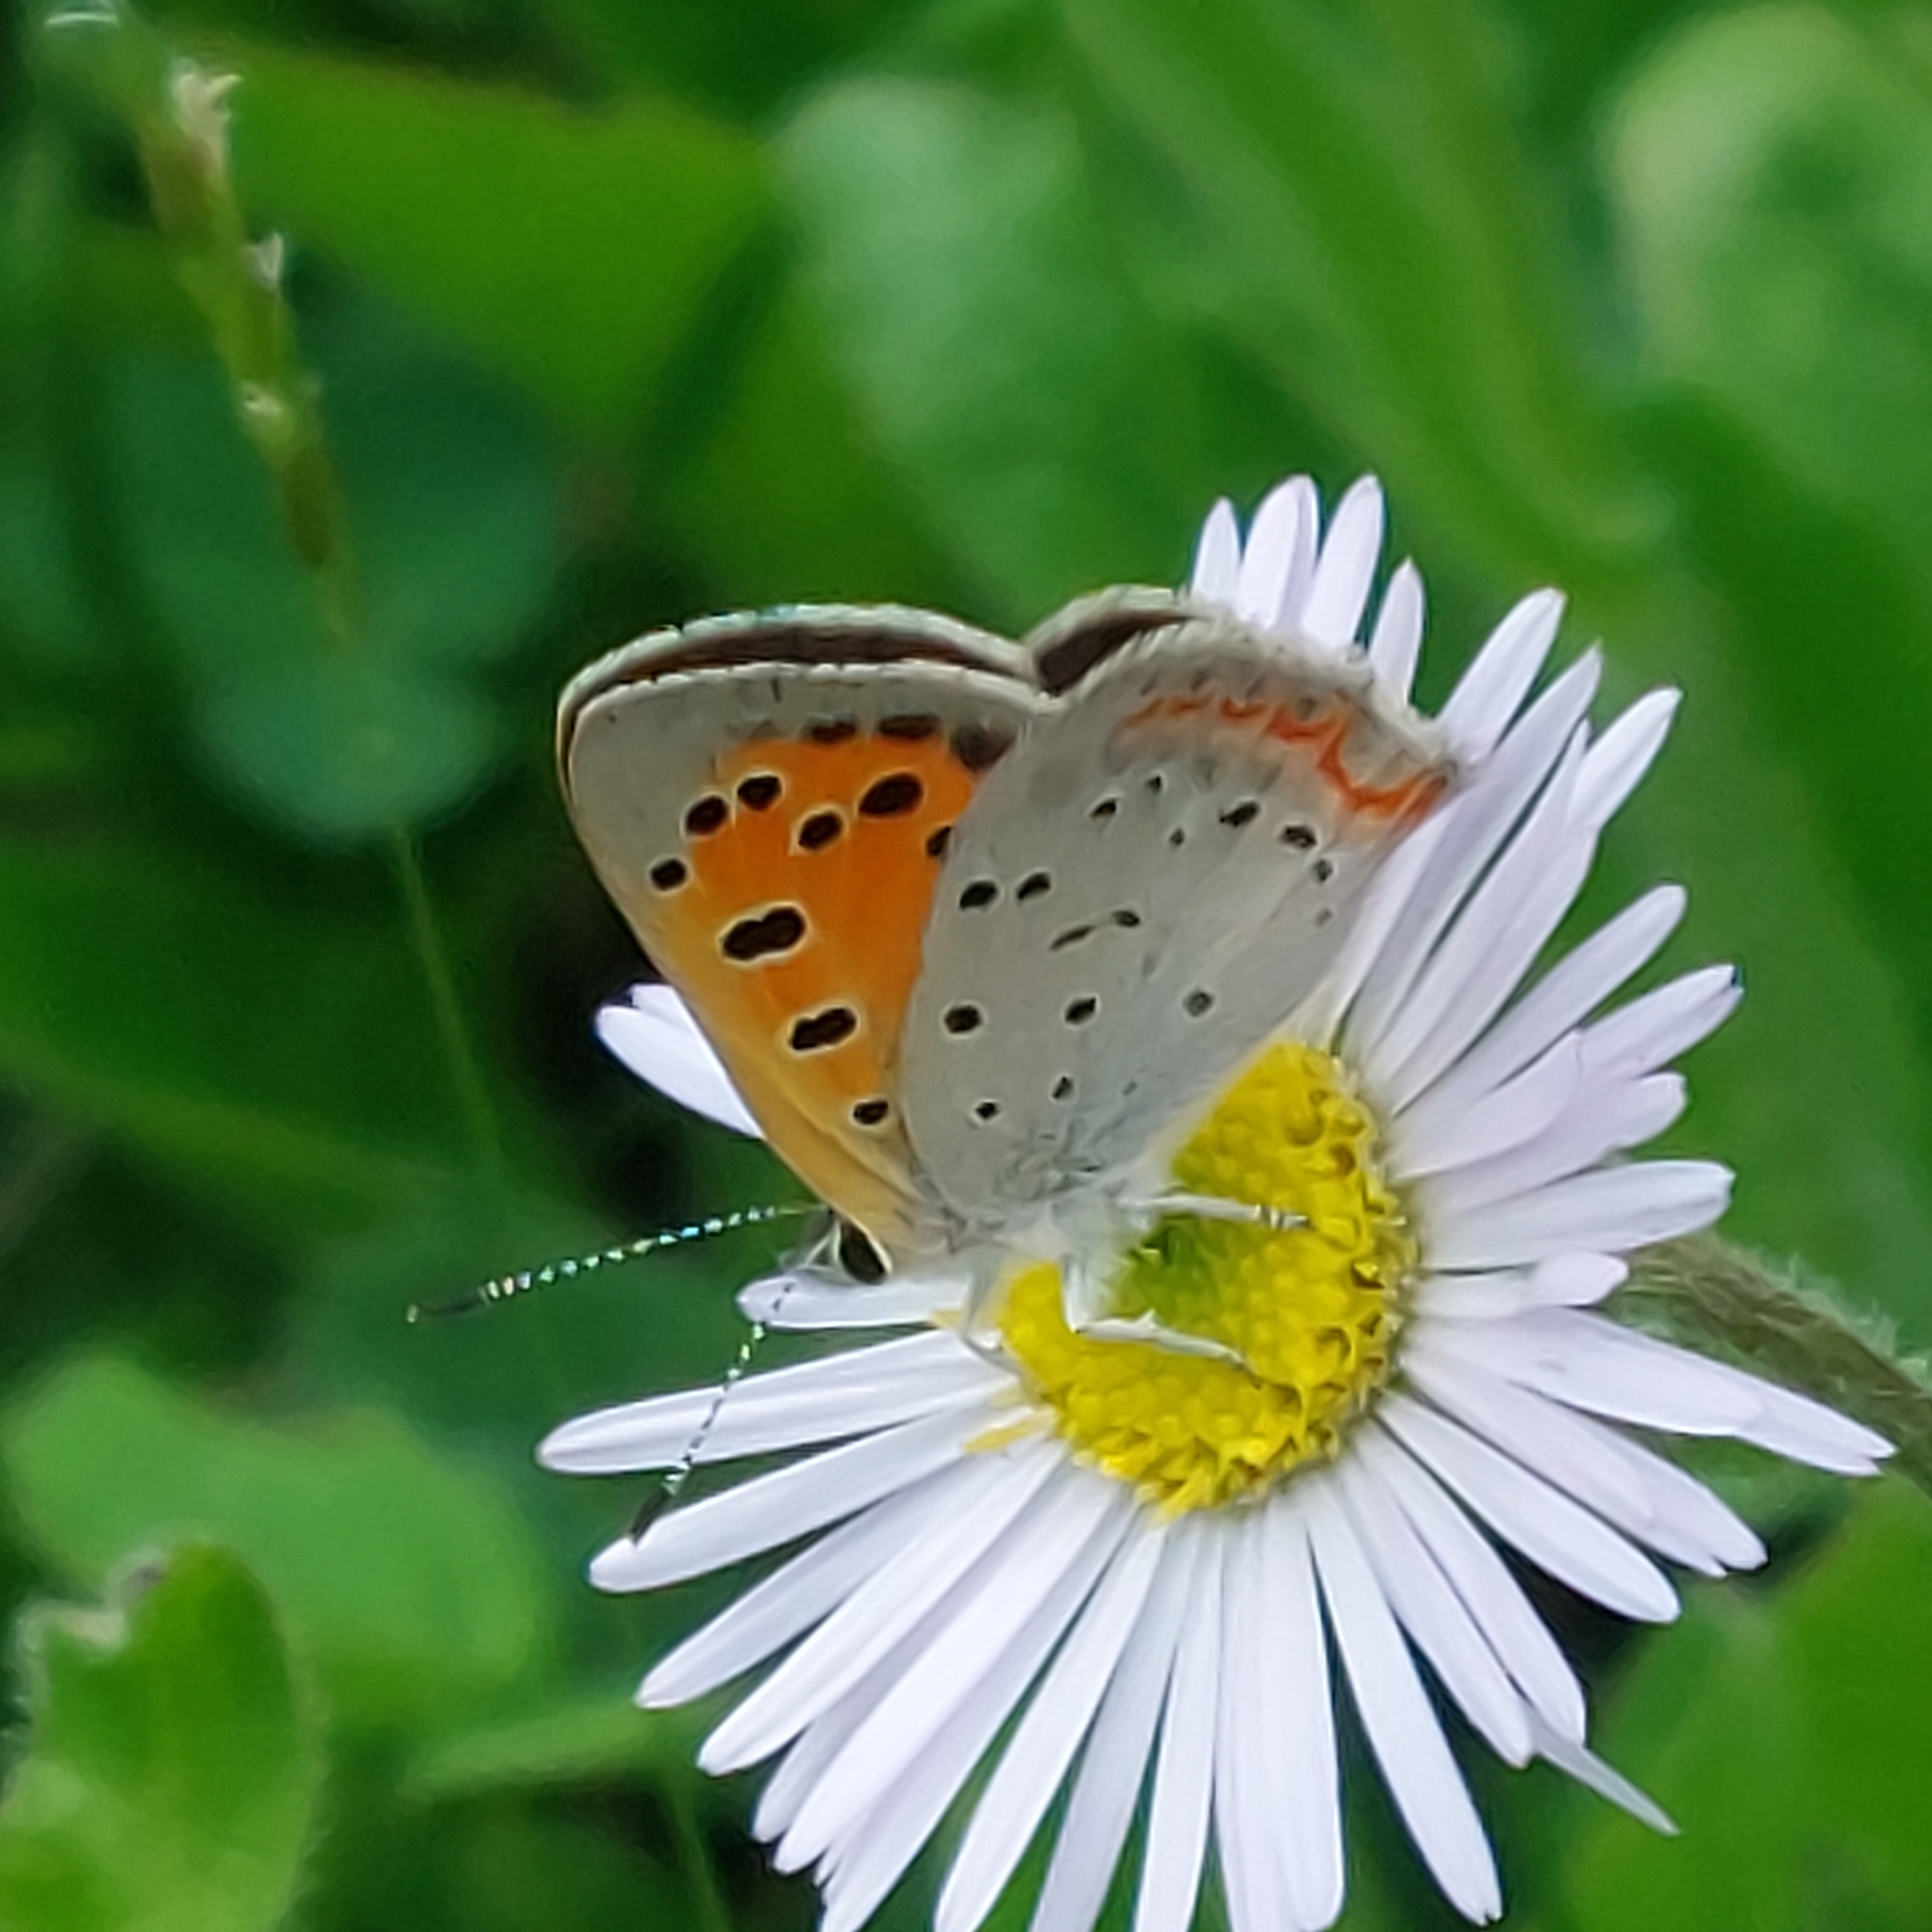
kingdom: Animalia
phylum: Arthropoda
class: Insecta
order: Lepidoptera
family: Lycaenidae
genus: Lycaena
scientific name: Lycaena hypophlaeas
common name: American copper
